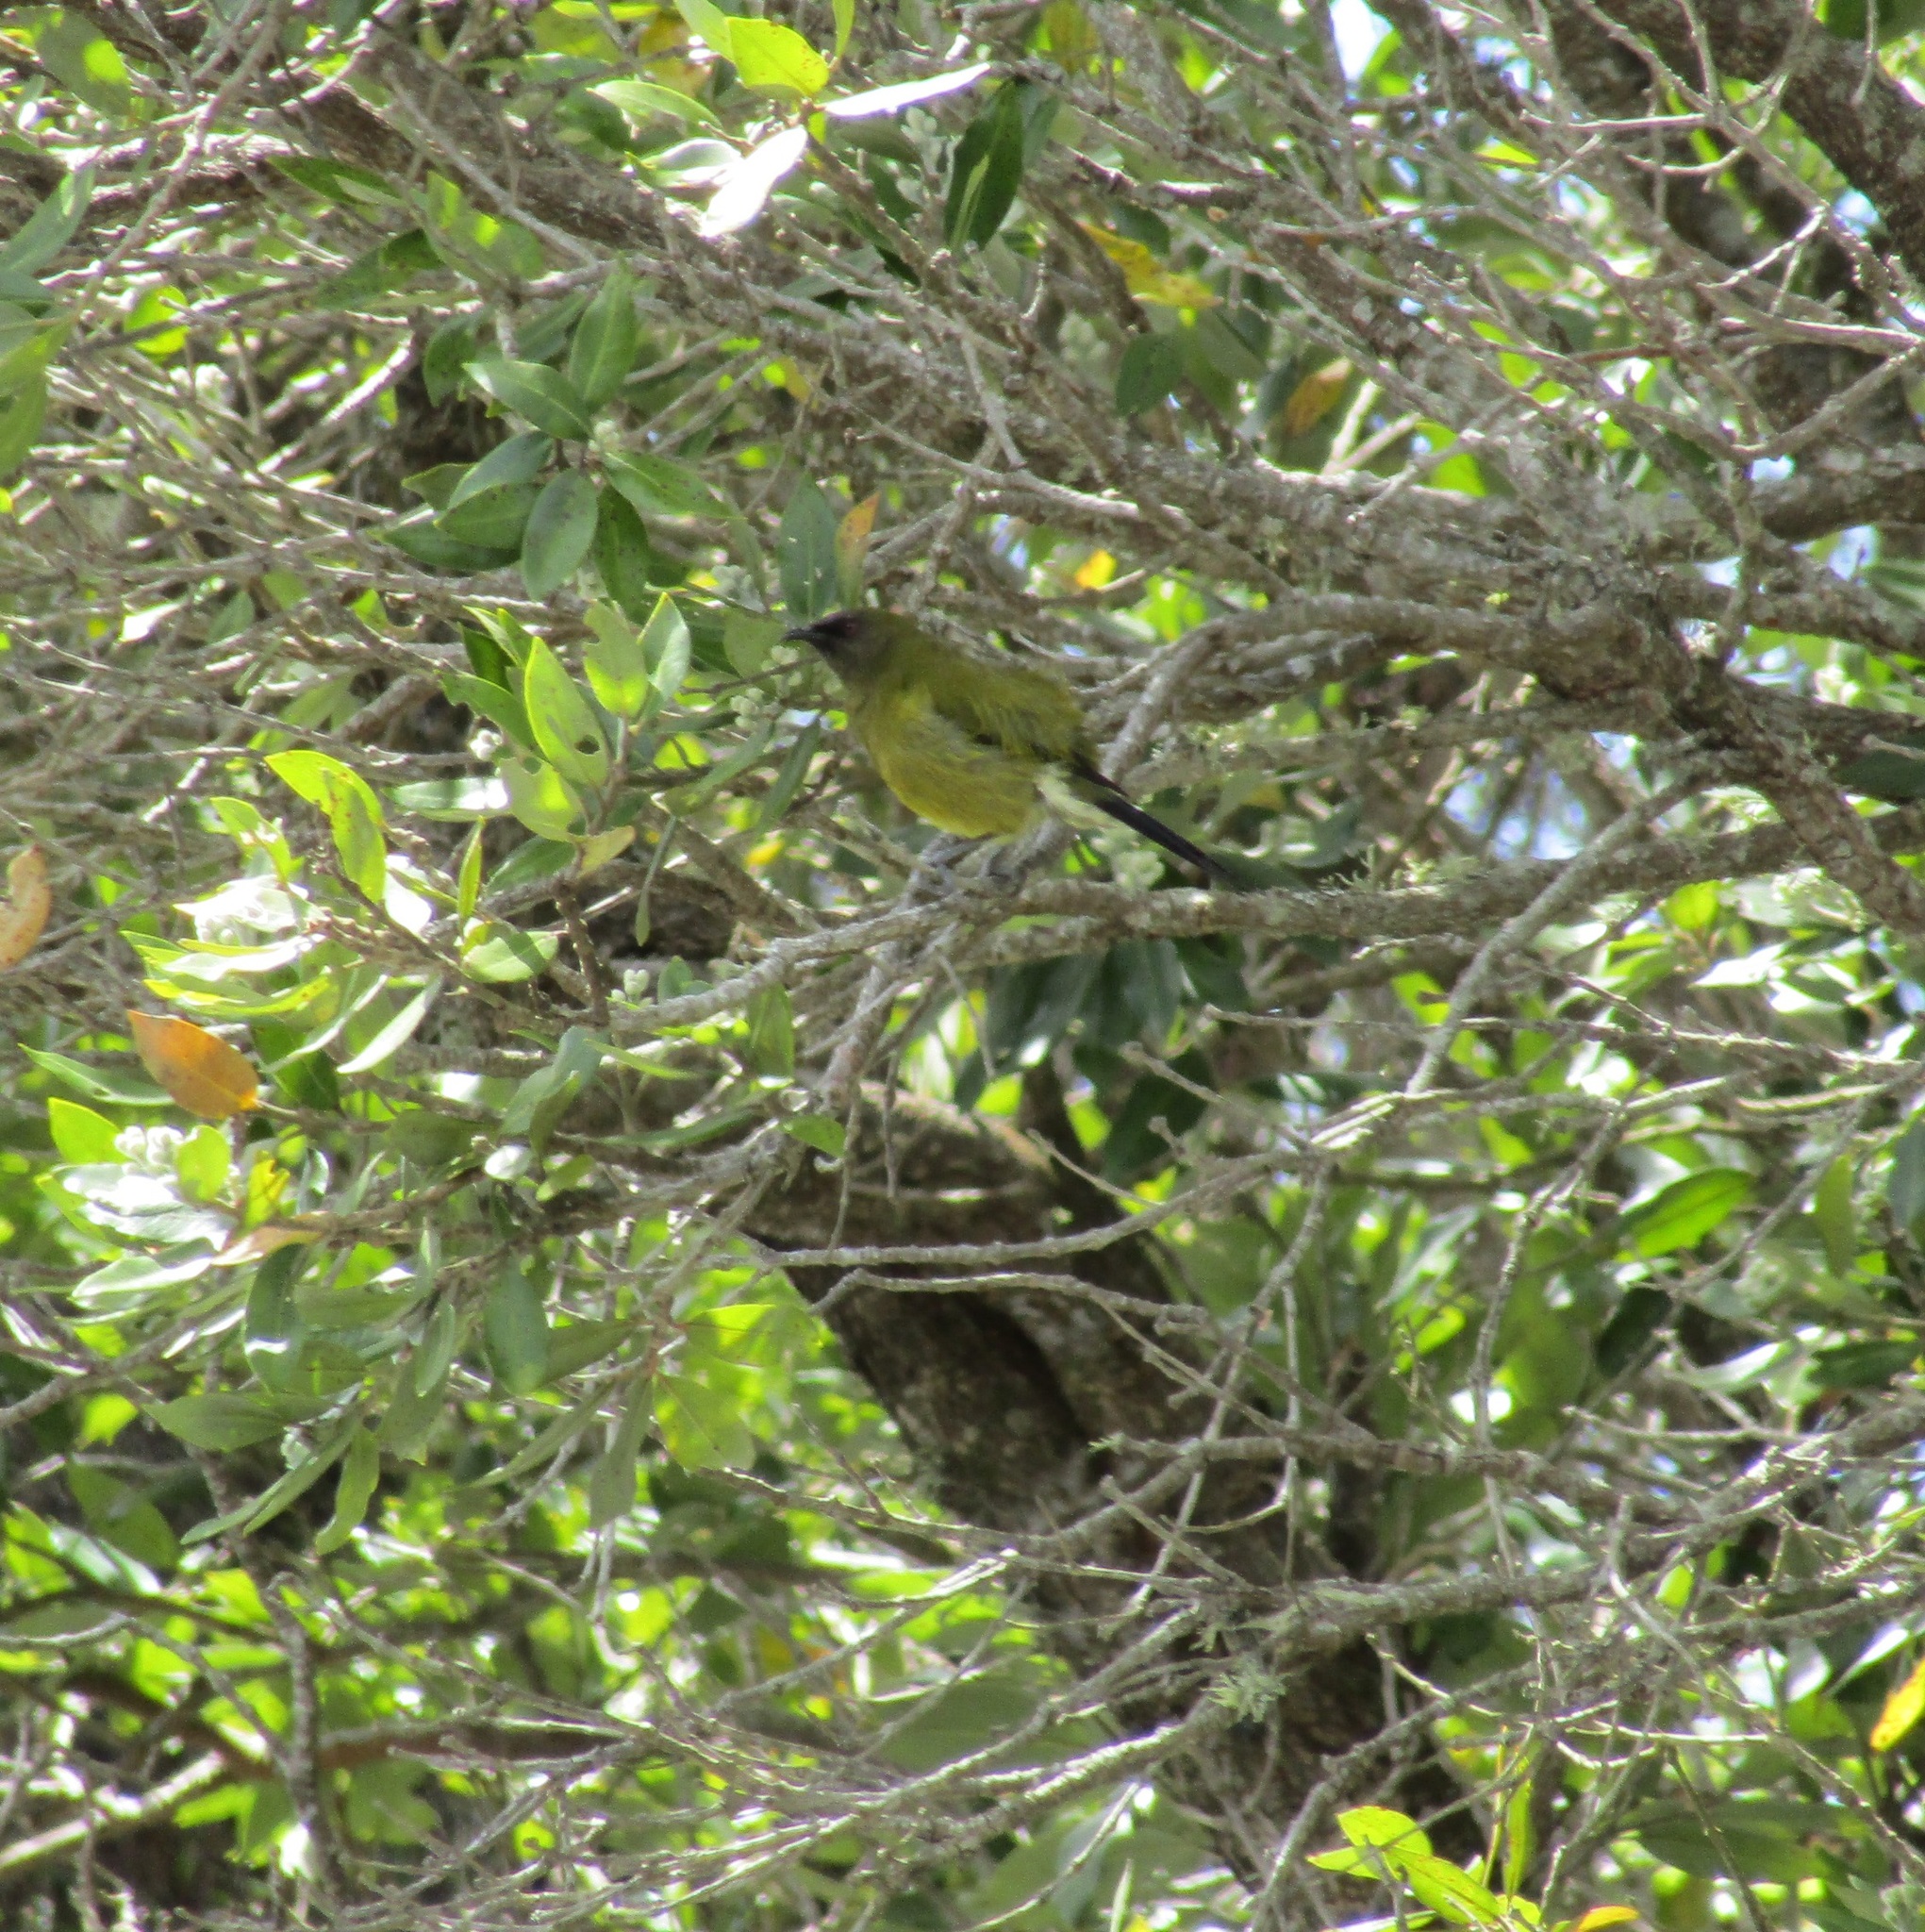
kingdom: Animalia
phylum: Chordata
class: Aves
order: Passeriformes
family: Meliphagidae
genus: Anthornis
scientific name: Anthornis melanura
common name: New zealand bellbird
